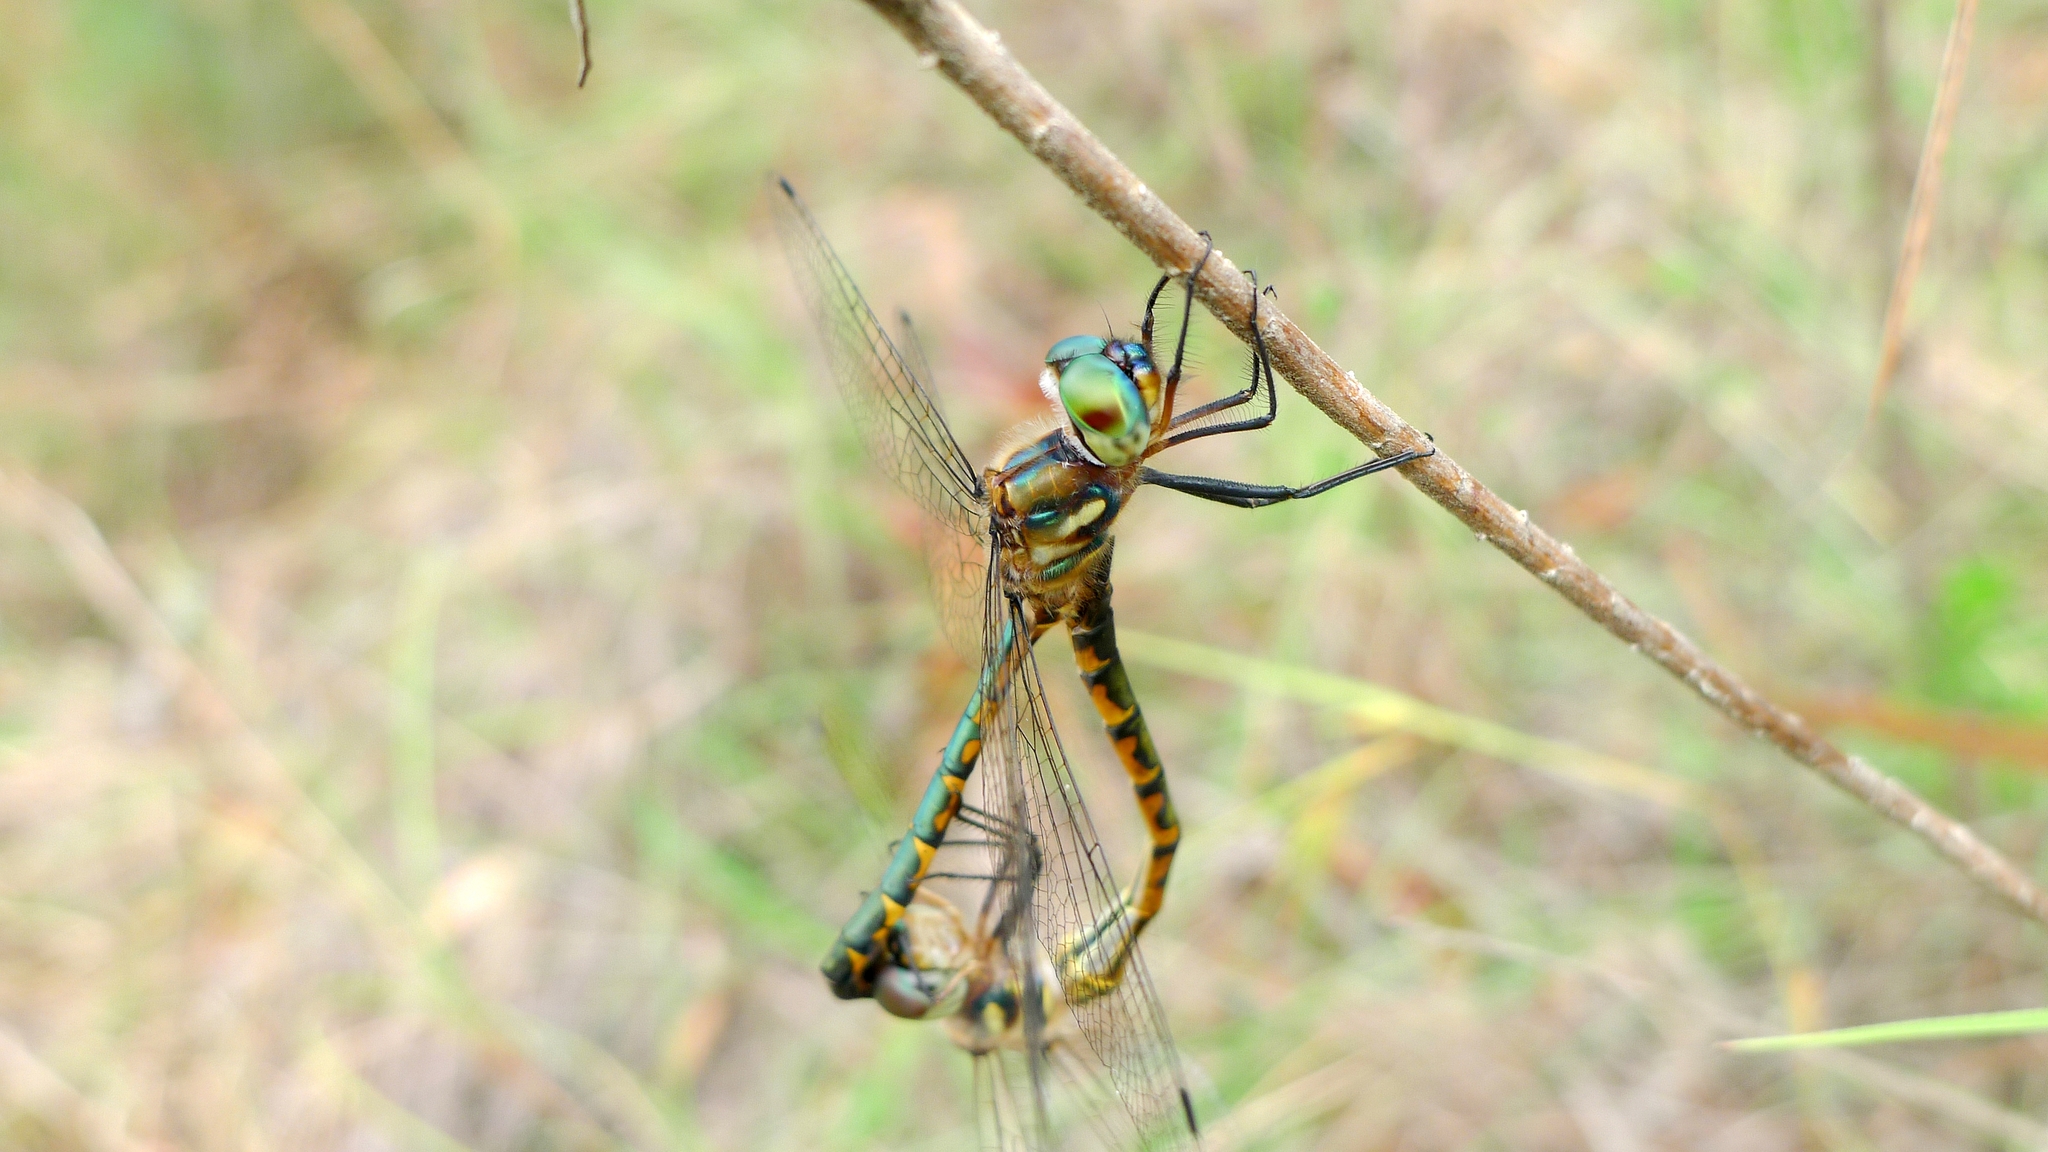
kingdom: Animalia
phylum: Arthropoda
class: Insecta
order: Odonata
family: Corduliidae
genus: Hemicordulia
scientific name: Hemicordulia australiae
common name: Sentry dragonfly
